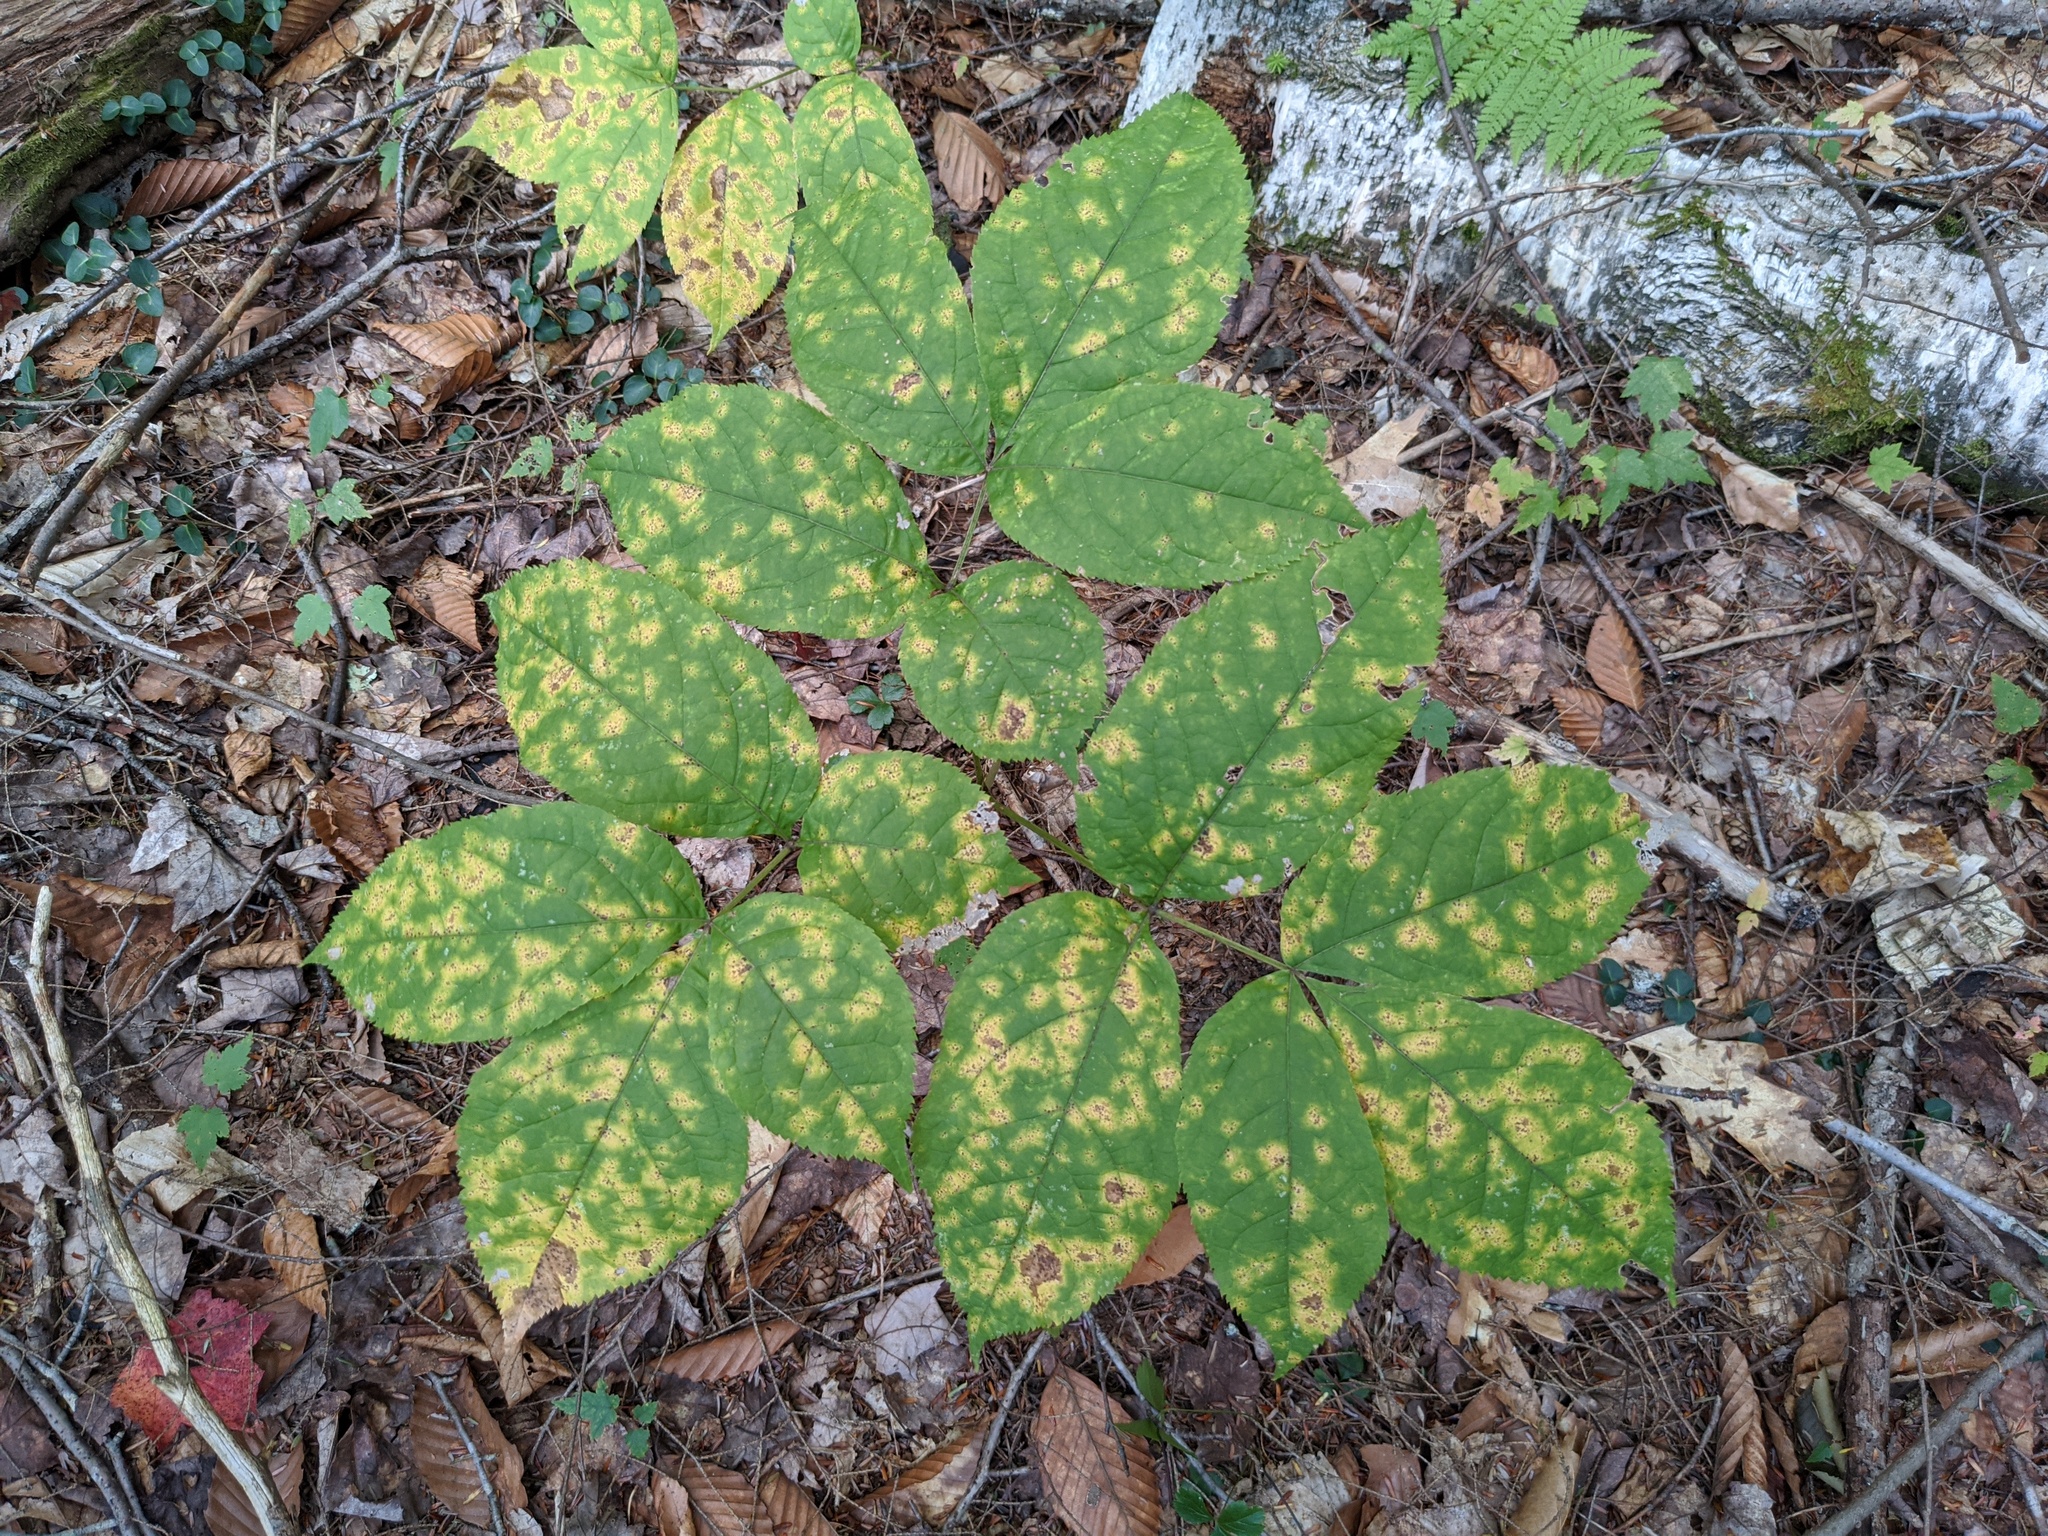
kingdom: Plantae
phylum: Tracheophyta
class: Magnoliopsida
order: Apiales
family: Araliaceae
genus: Aralia
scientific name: Aralia nudicaulis
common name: Wild sarsaparilla
